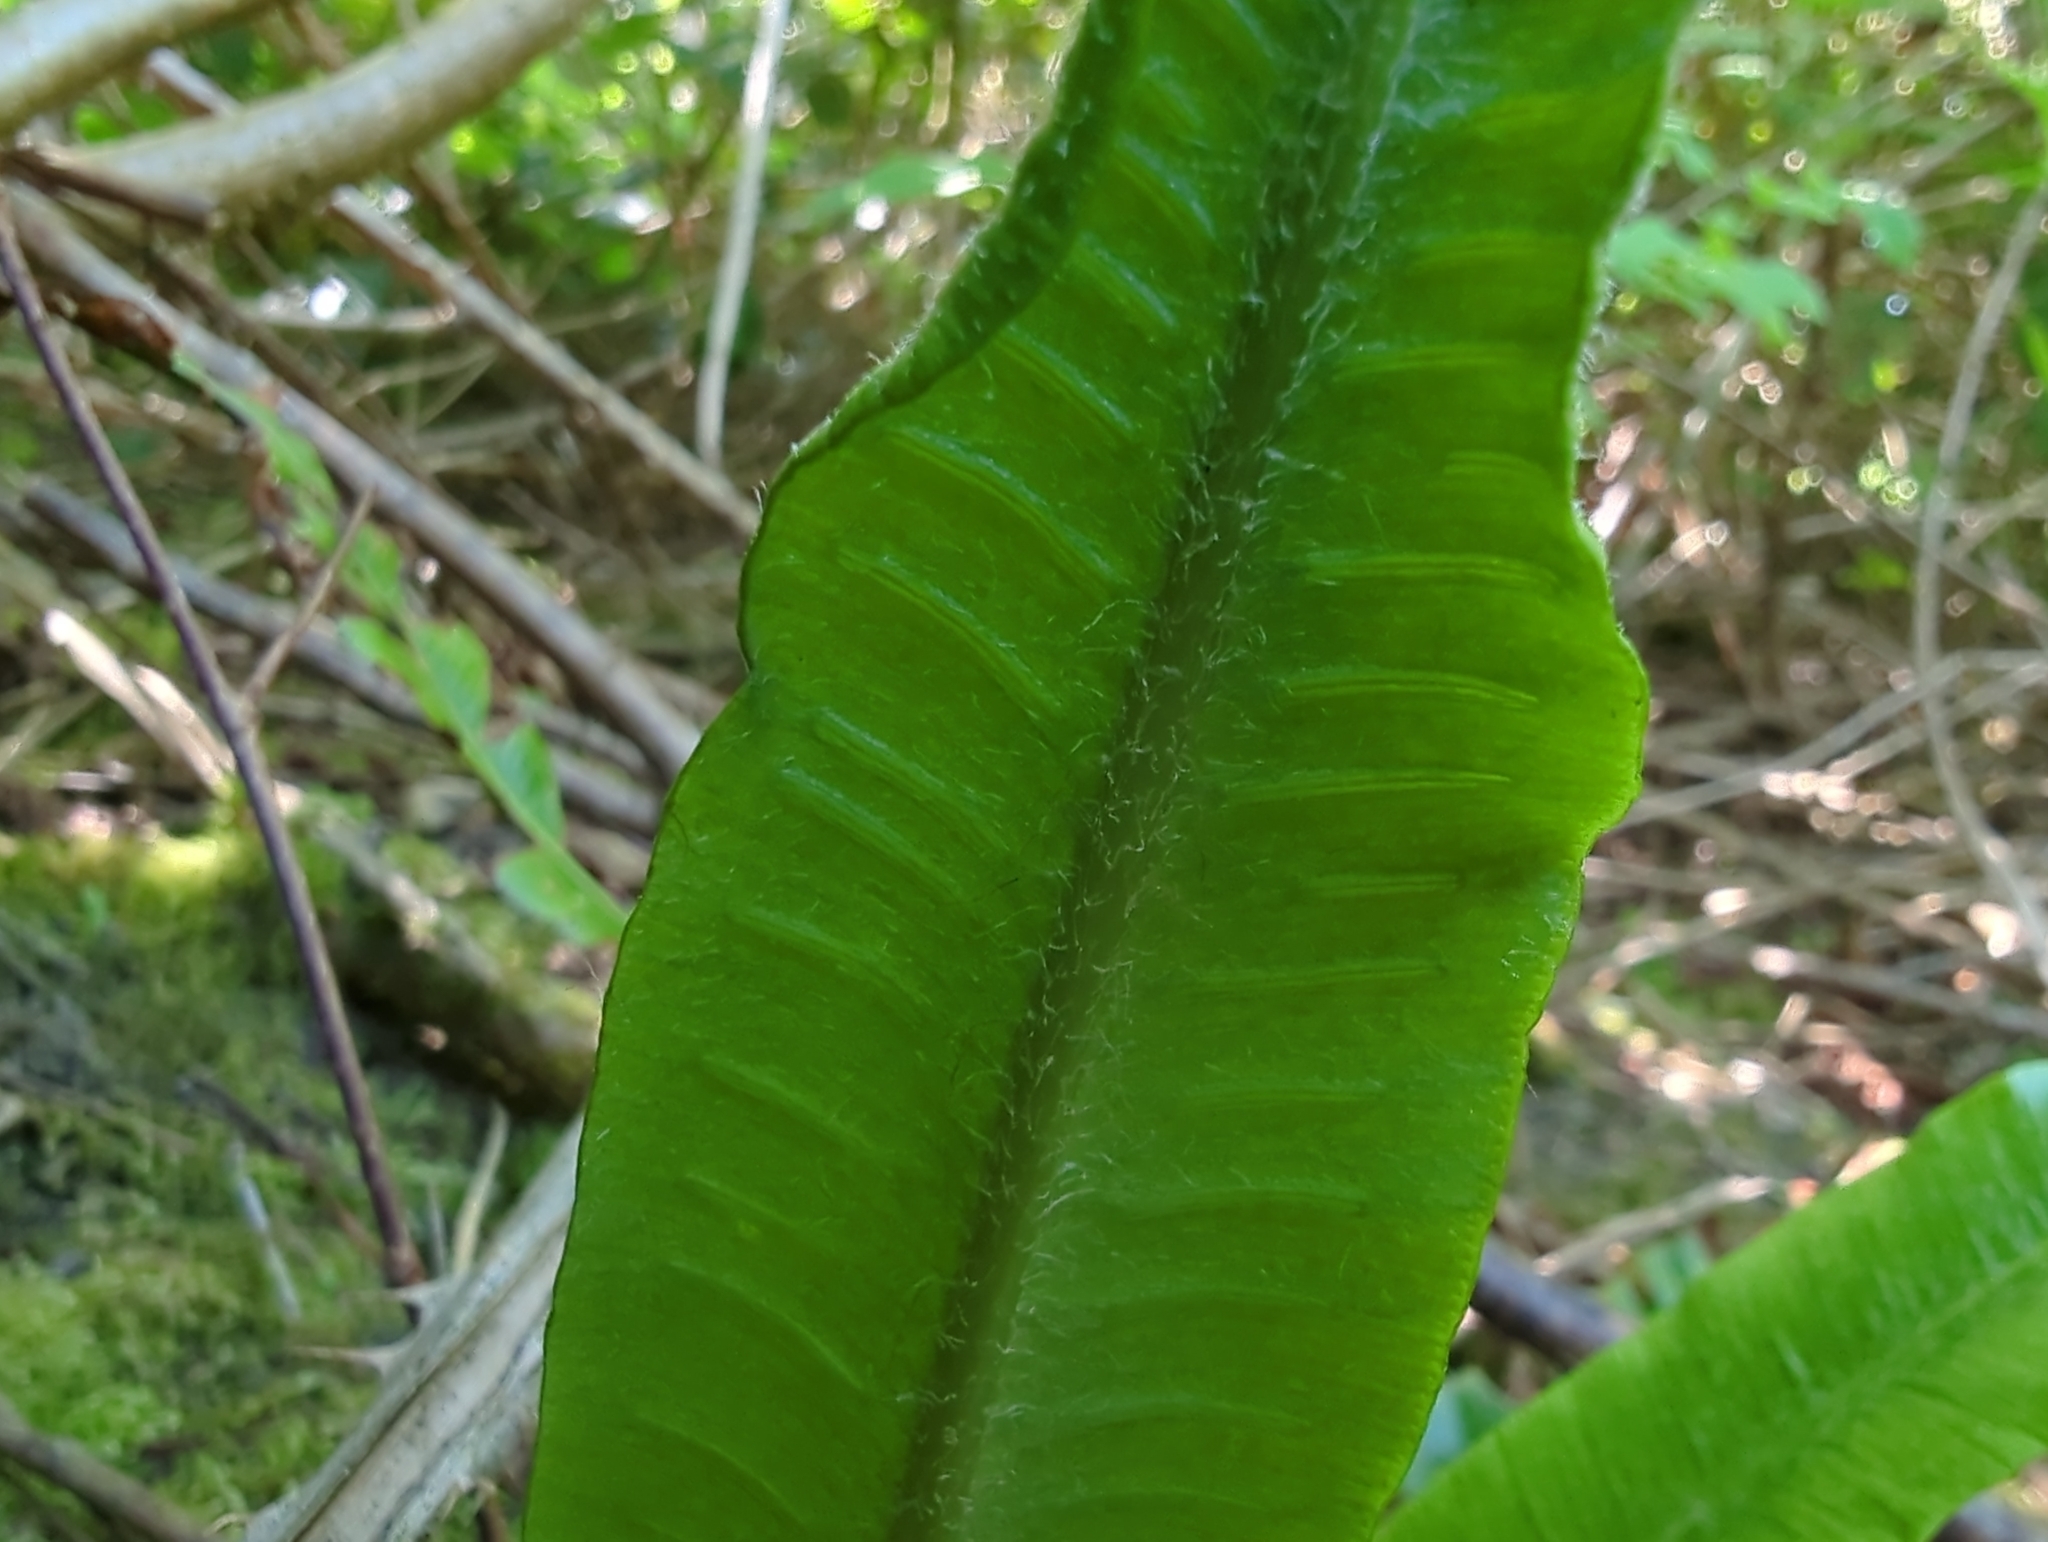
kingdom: Plantae
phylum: Tracheophyta
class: Polypodiopsida
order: Polypodiales
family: Aspleniaceae
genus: Asplenium
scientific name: Asplenium scolopendrium
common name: Hart's-tongue fern
